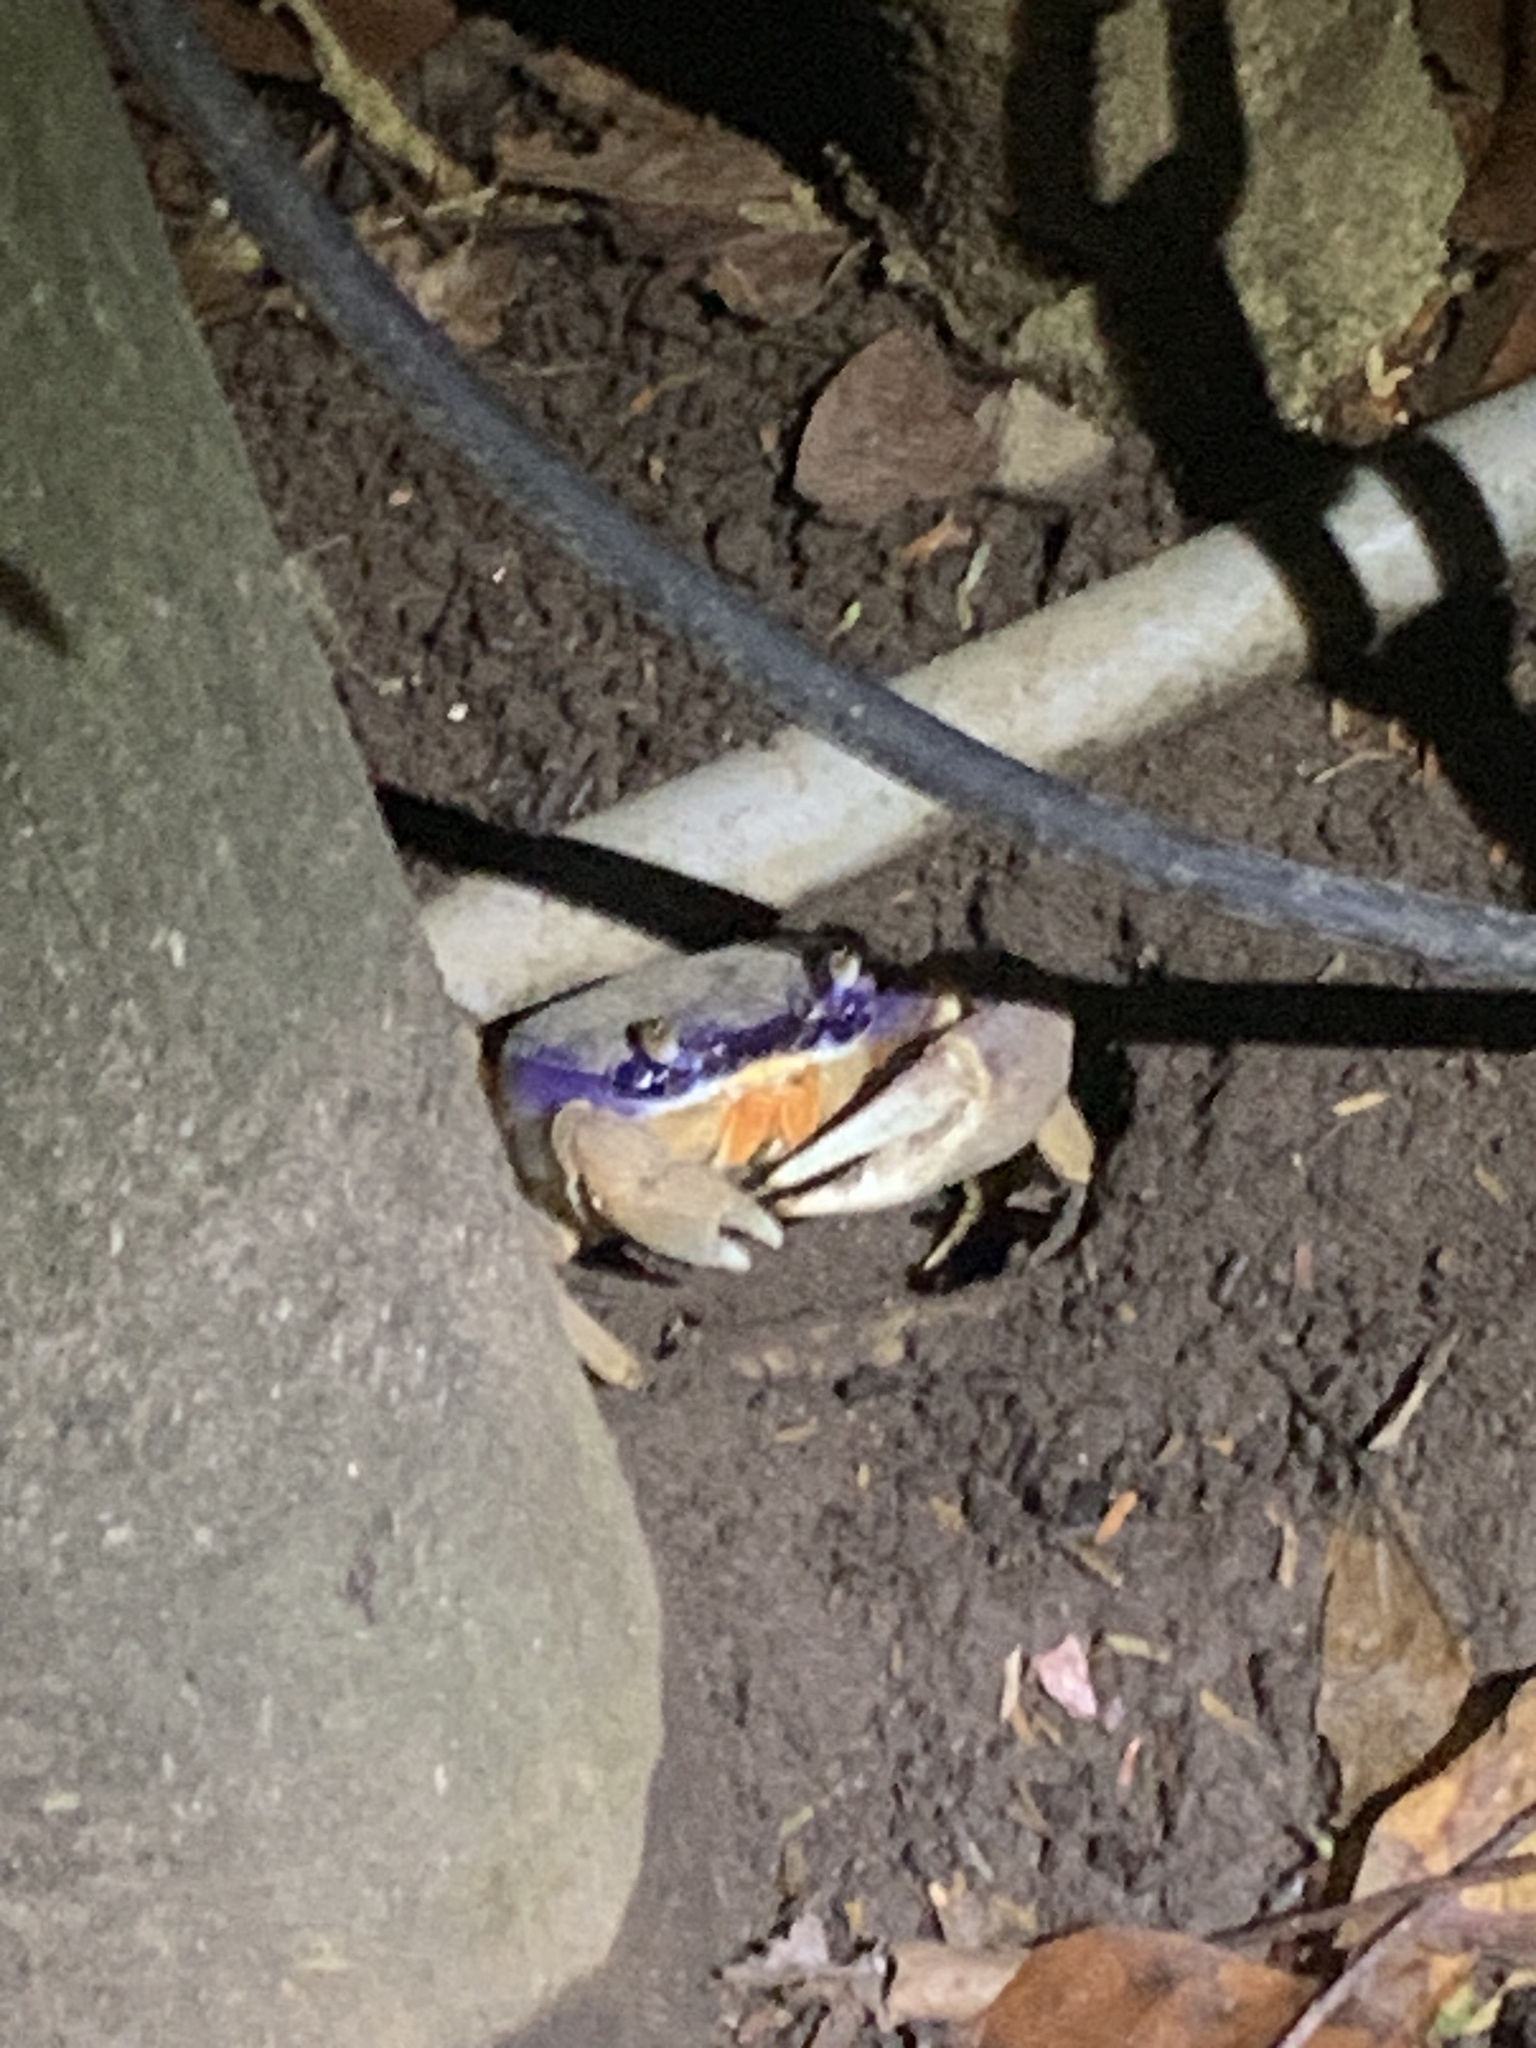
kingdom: Animalia
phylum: Arthropoda
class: Malacostraca
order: Decapoda
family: Gecarcinidae
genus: Cardisoma
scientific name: Cardisoma guanhumi
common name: Great land crab
